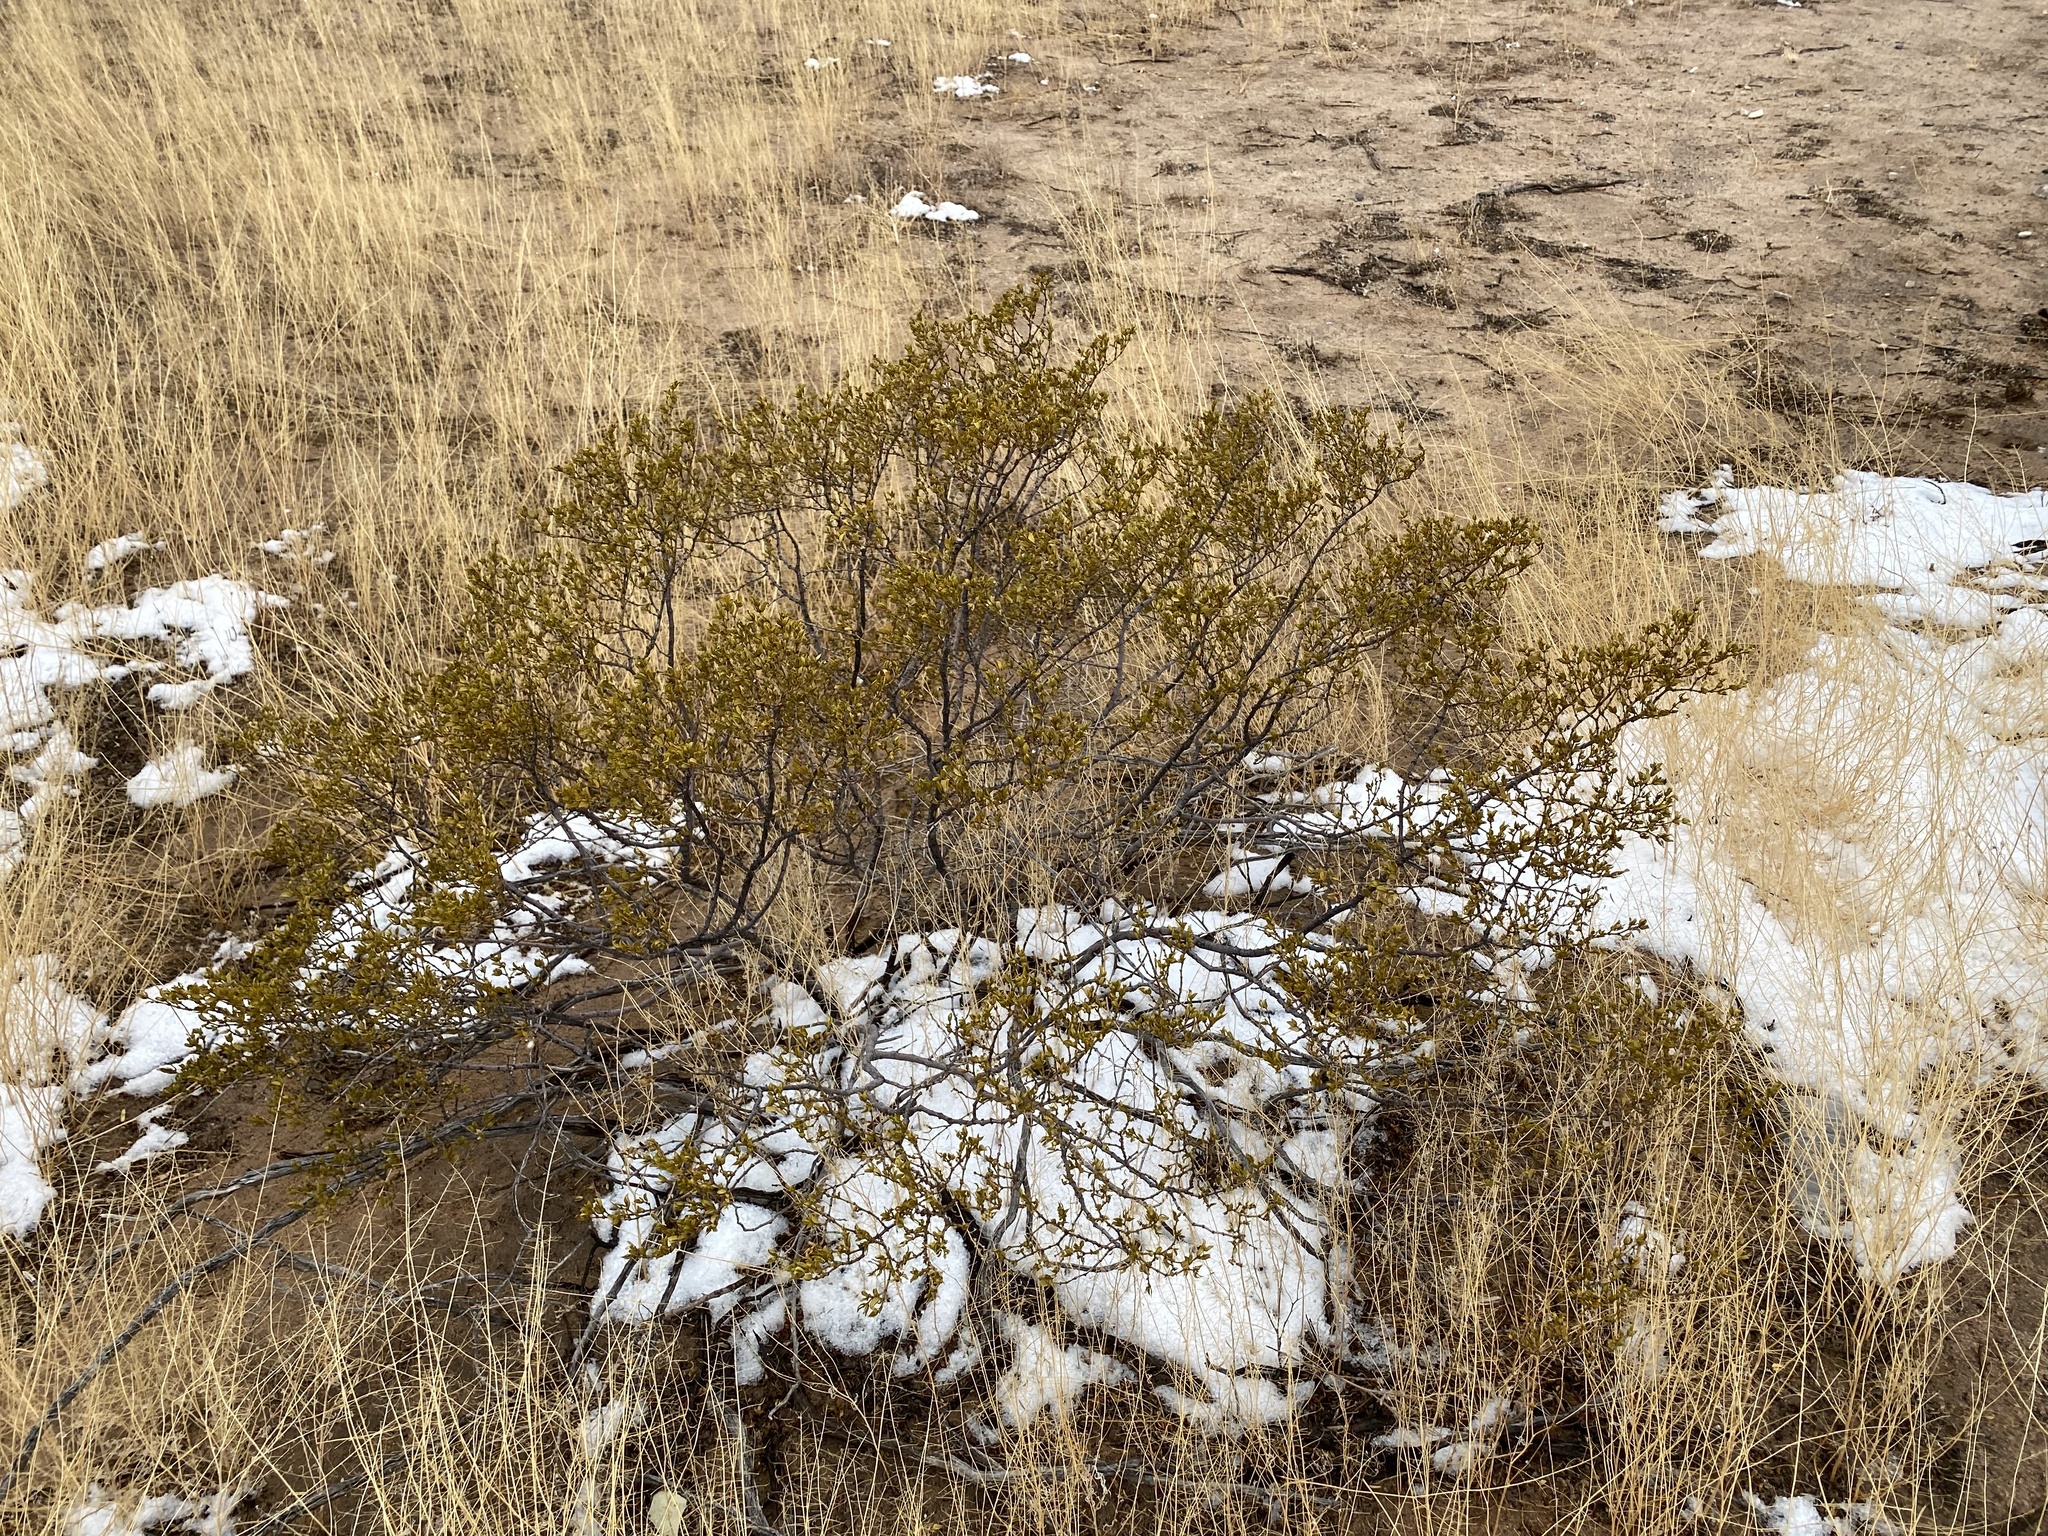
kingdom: Plantae
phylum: Tracheophyta
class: Magnoliopsida
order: Zygophyllales
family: Zygophyllaceae
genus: Larrea
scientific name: Larrea tridentata
